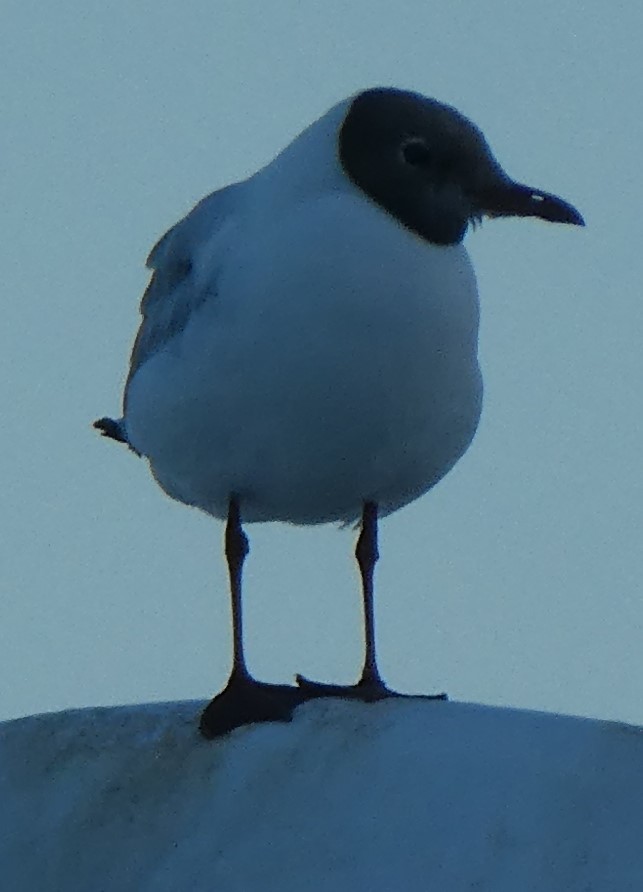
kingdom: Animalia
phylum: Chordata
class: Aves
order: Charadriiformes
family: Laridae
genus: Chroicocephalus
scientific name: Chroicocephalus ridibundus
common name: Black-headed gull
